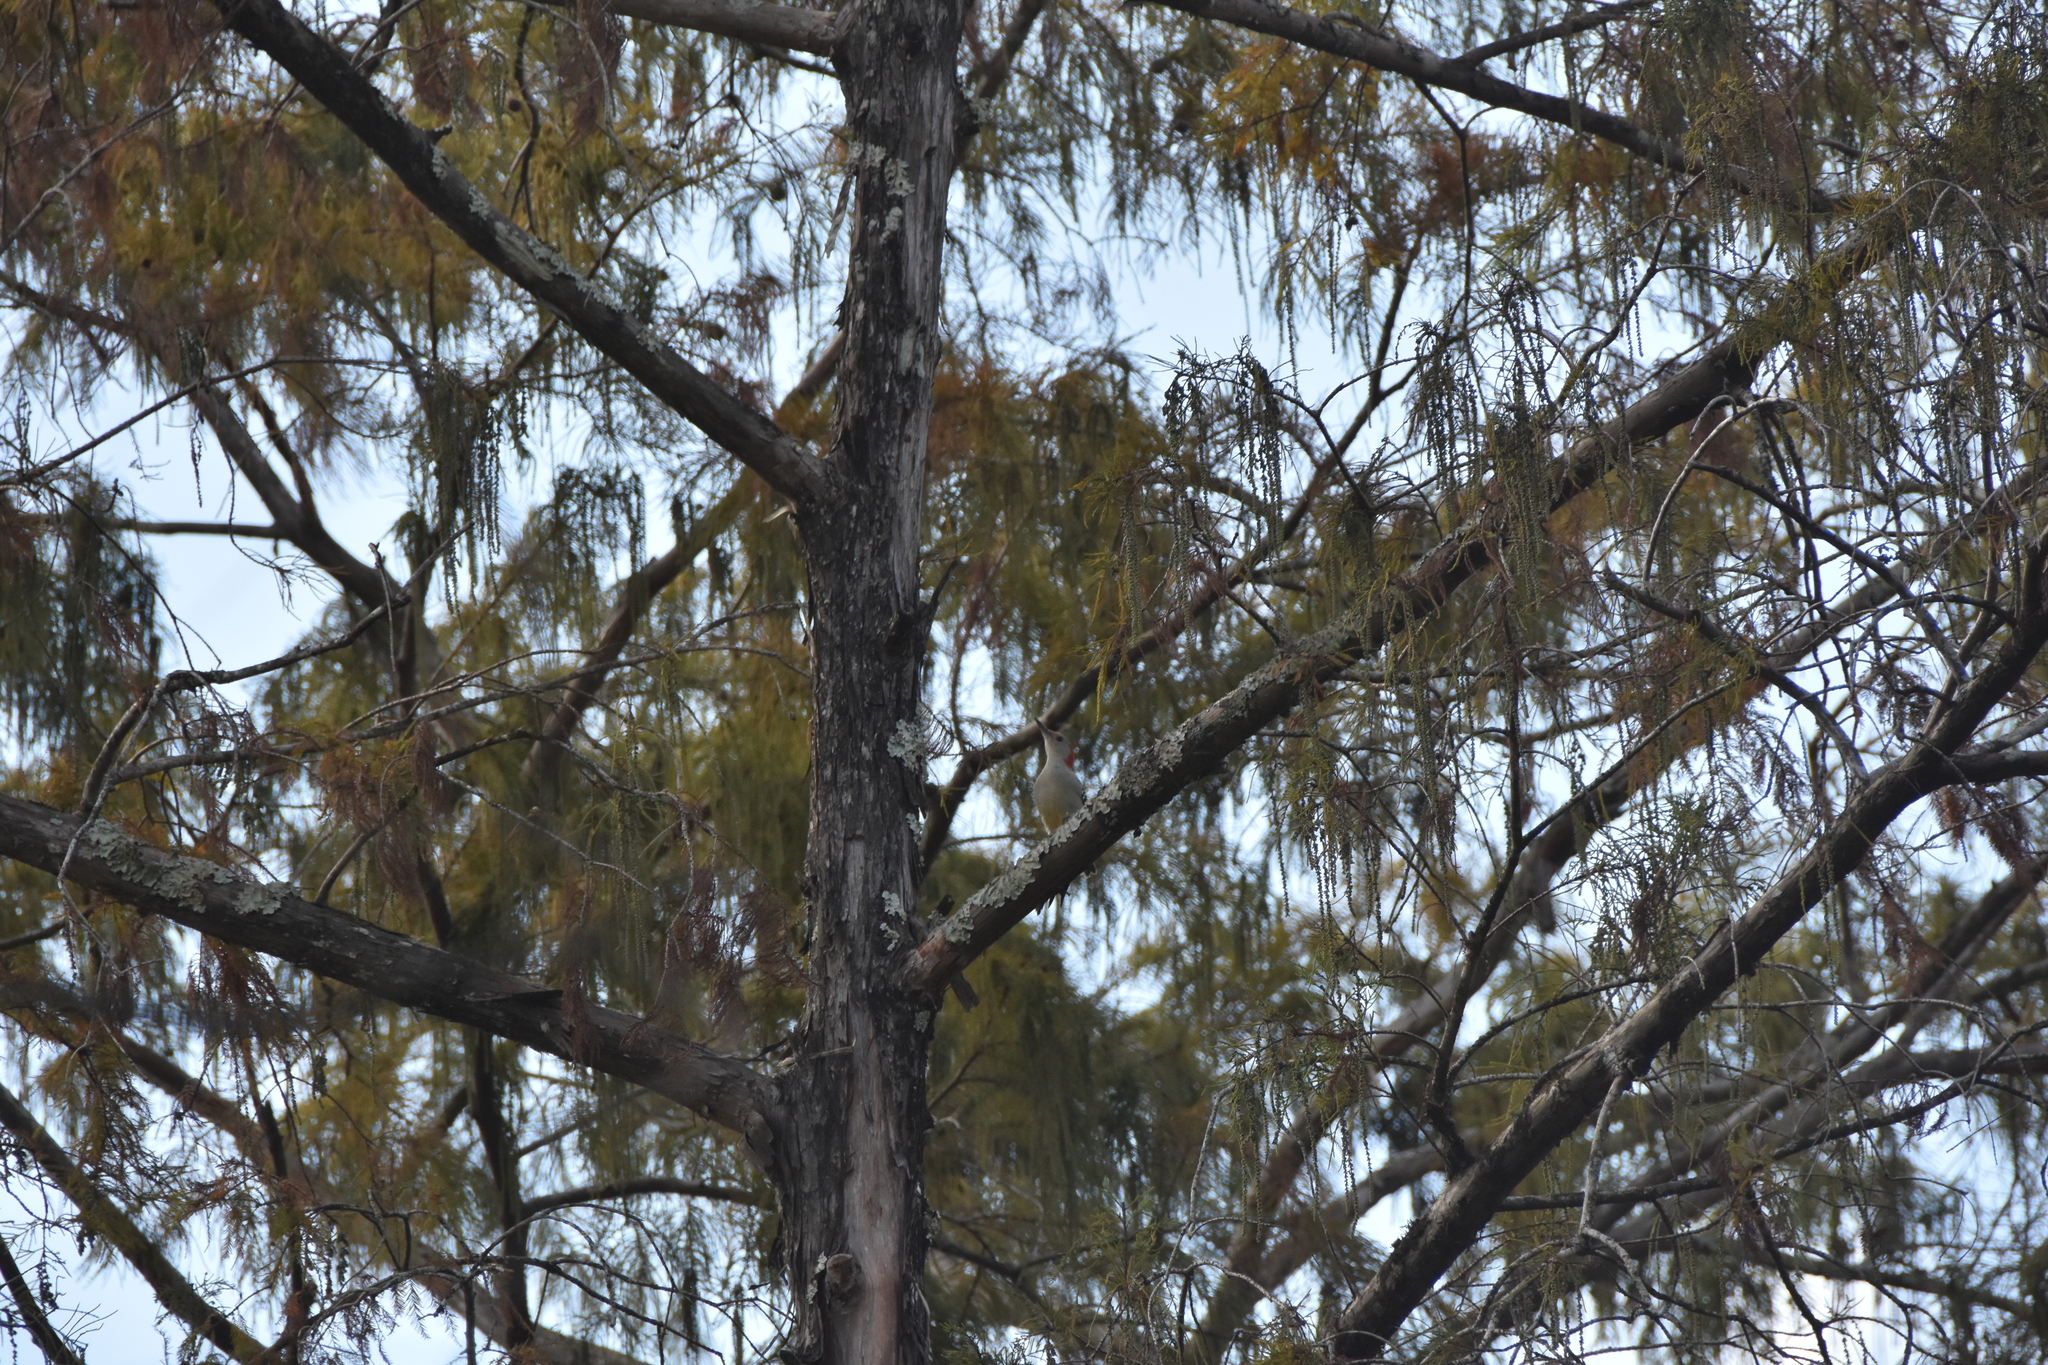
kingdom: Animalia
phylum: Chordata
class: Aves
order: Piciformes
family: Picidae
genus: Melanerpes
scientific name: Melanerpes carolinus
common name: Red-bellied woodpecker
